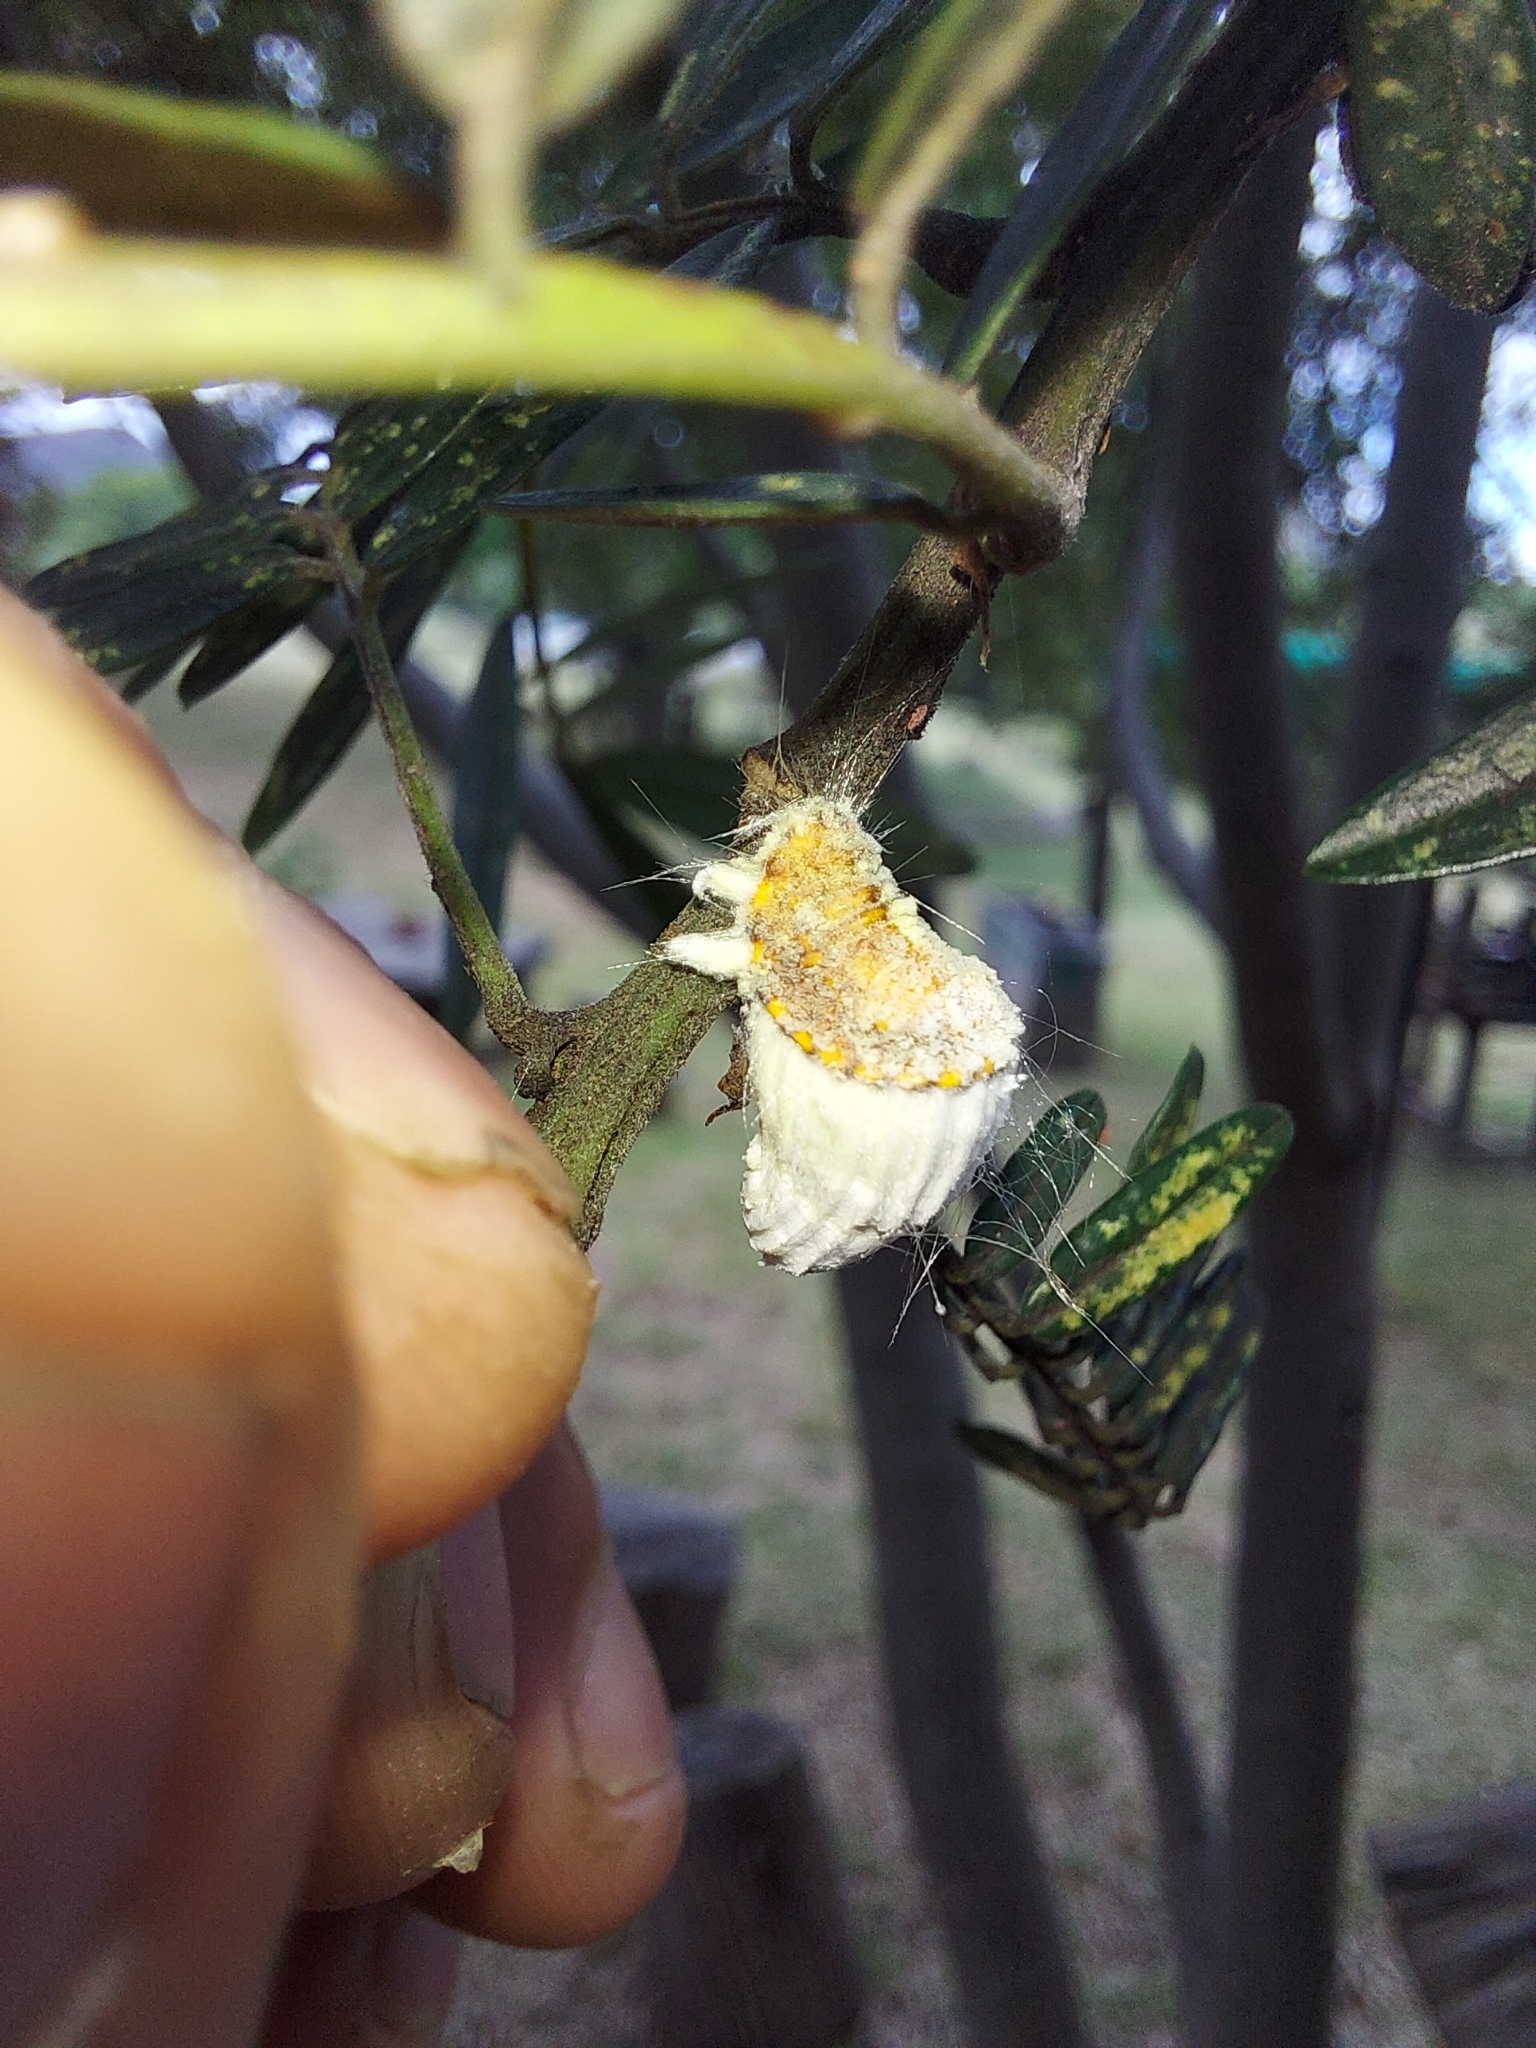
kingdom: Animalia
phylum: Arthropoda
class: Insecta
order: Hemiptera
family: Margarodidae
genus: Icerya
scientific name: Icerya purchasi
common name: Cottony cushion scale
